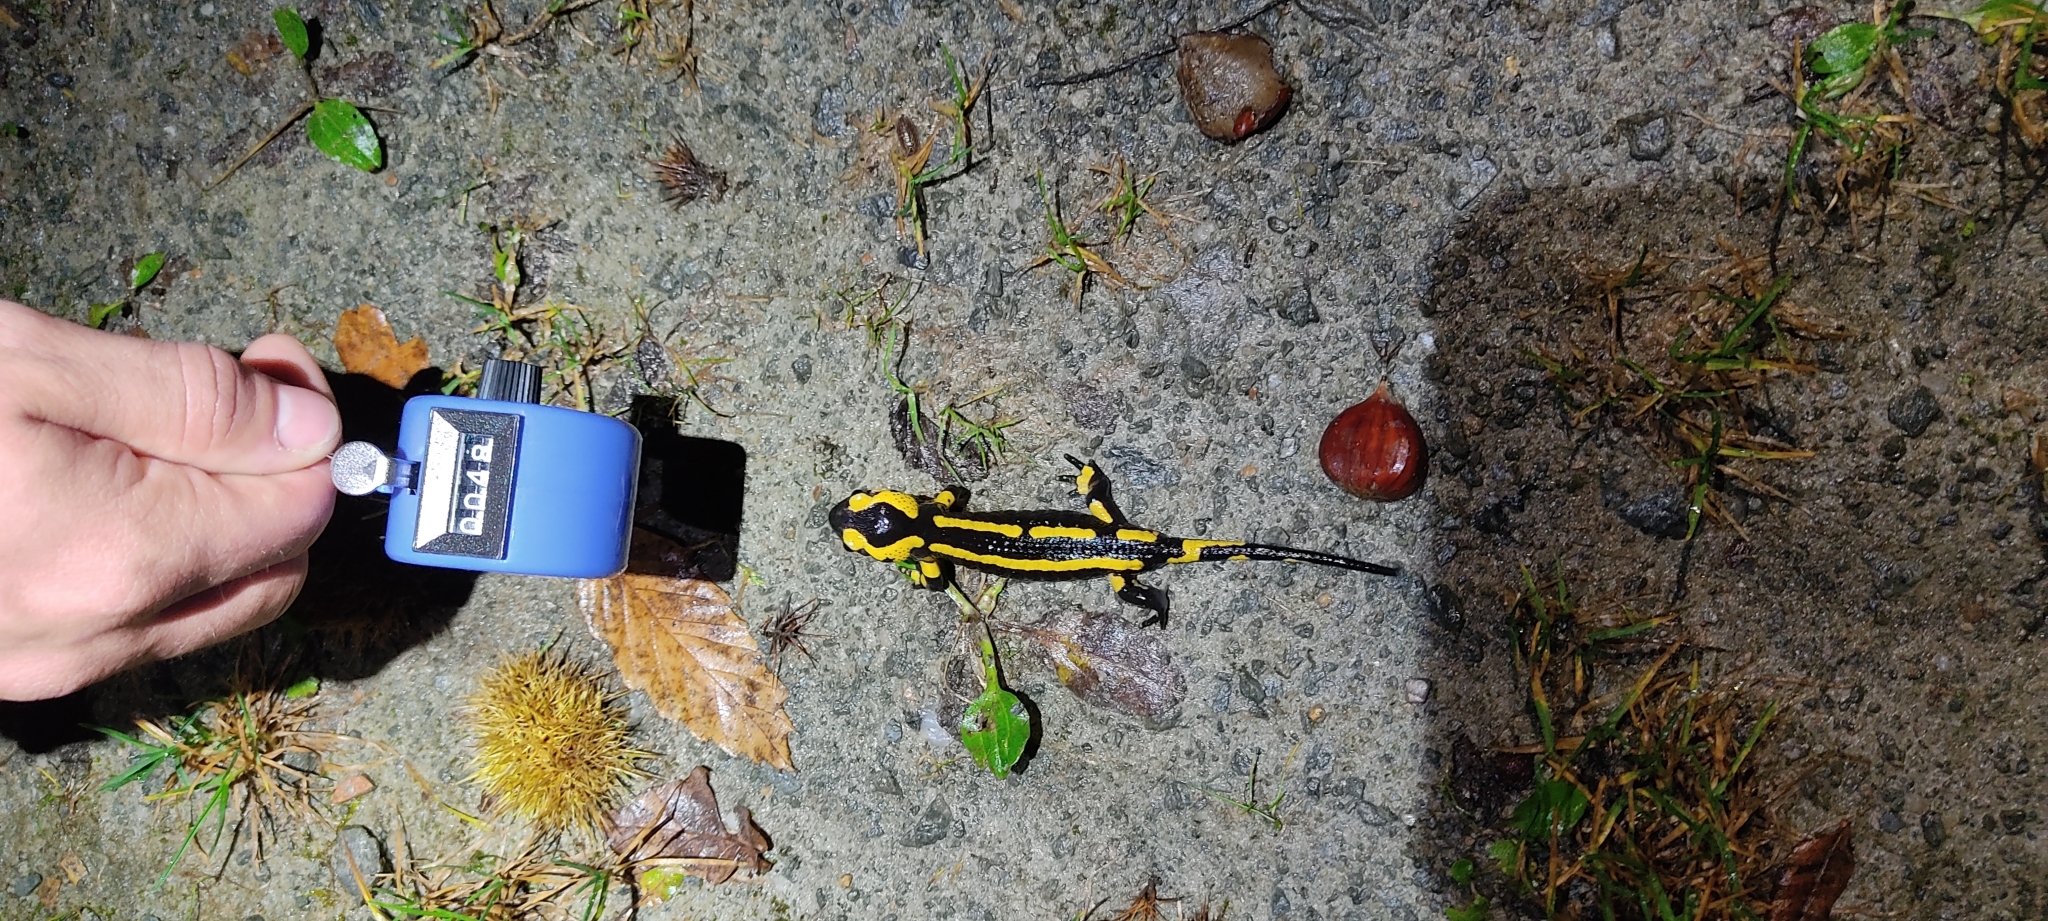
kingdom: Animalia
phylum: Chordata
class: Amphibia
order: Caudata
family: Salamandridae
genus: Salamandra
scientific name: Salamandra salamandra
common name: Fire salamander
